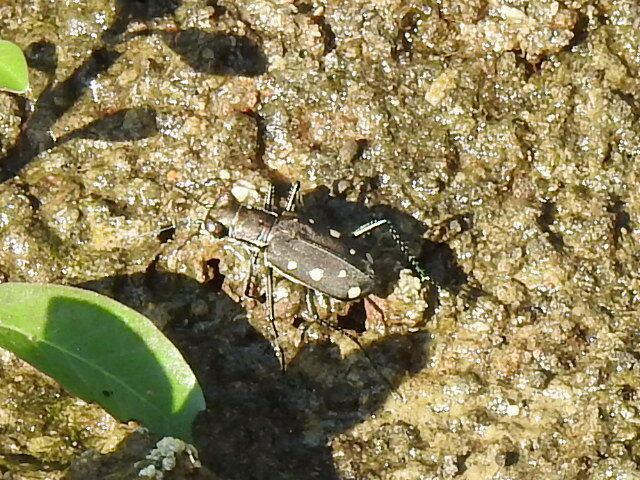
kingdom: Animalia
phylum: Arthropoda
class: Insecta
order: Coleoptera
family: Carabidae
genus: Cicindela
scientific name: Cicindela ocellata
